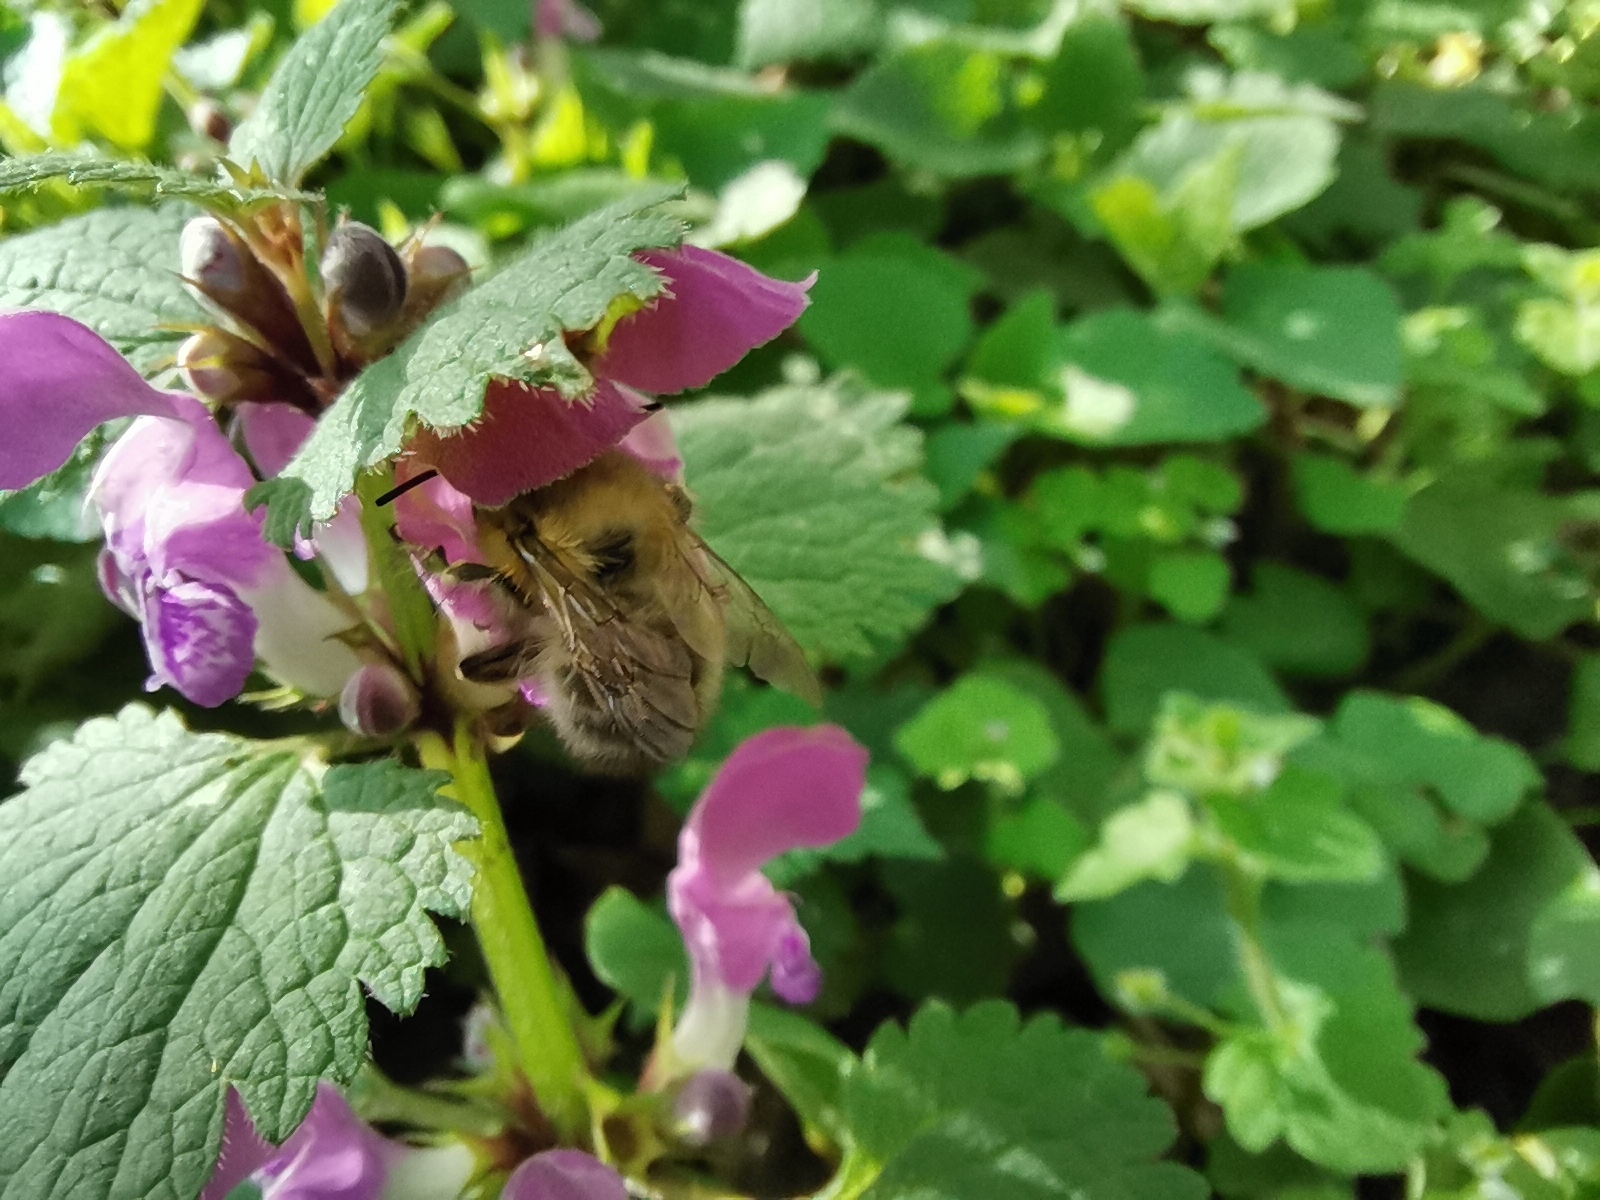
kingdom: Animalia
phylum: Arthropoda
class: Insecta
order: Hymenoptera
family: Apidae
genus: Anthophora
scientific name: Anthophora plumipes
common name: Hairy-footed flower bee
